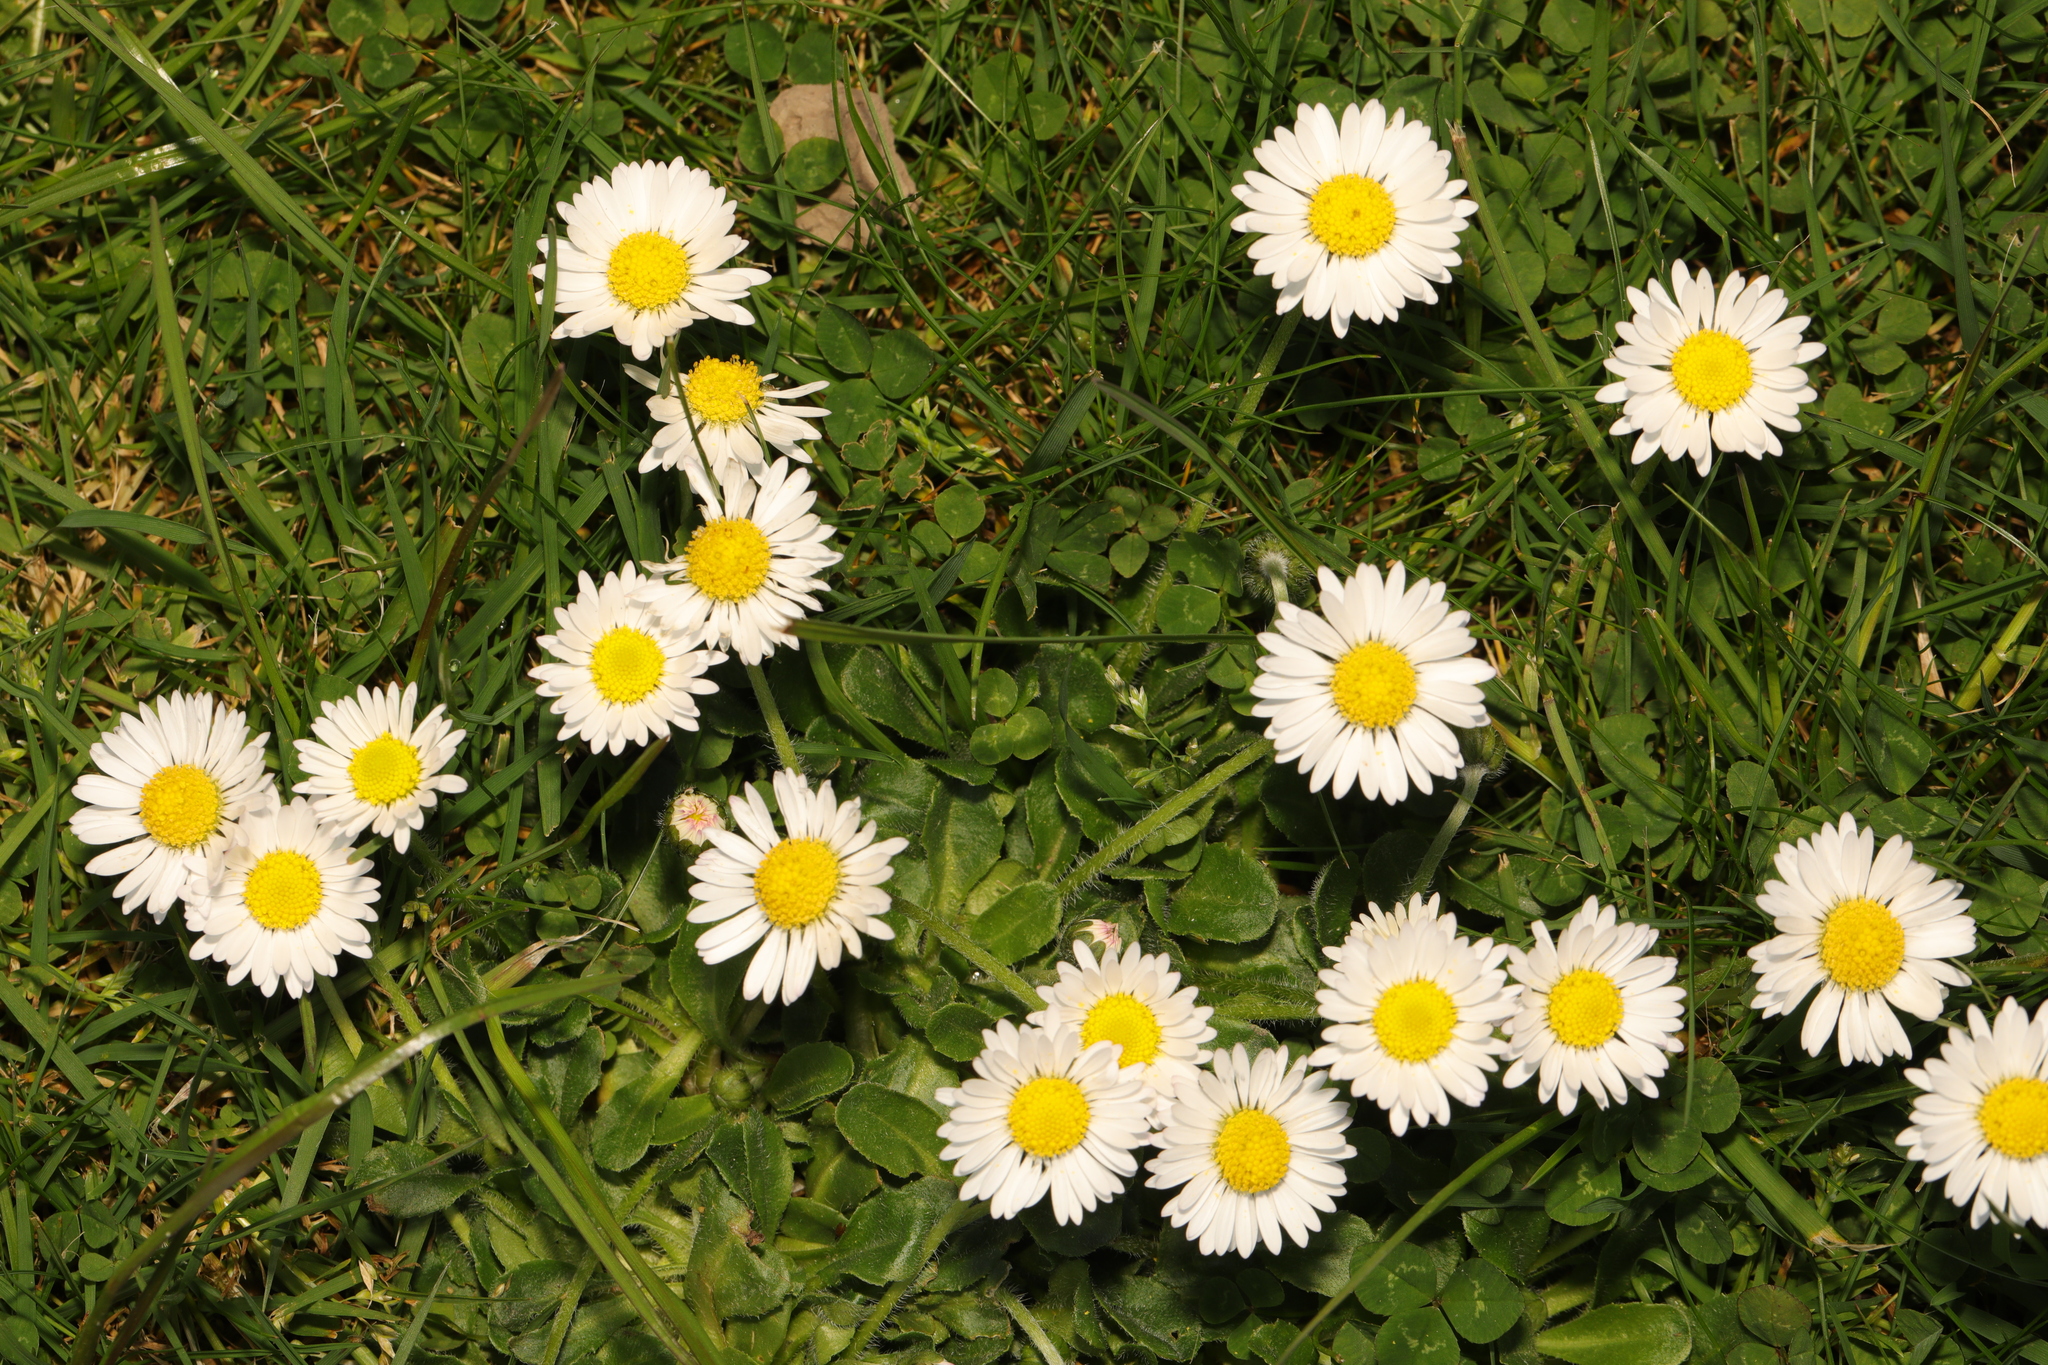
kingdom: Plantae
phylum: Tracheophyta
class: Magnoliopsida
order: Asterales
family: Asteraceae
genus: Bellis
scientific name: Bellis perennis
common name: Lawndaisy
